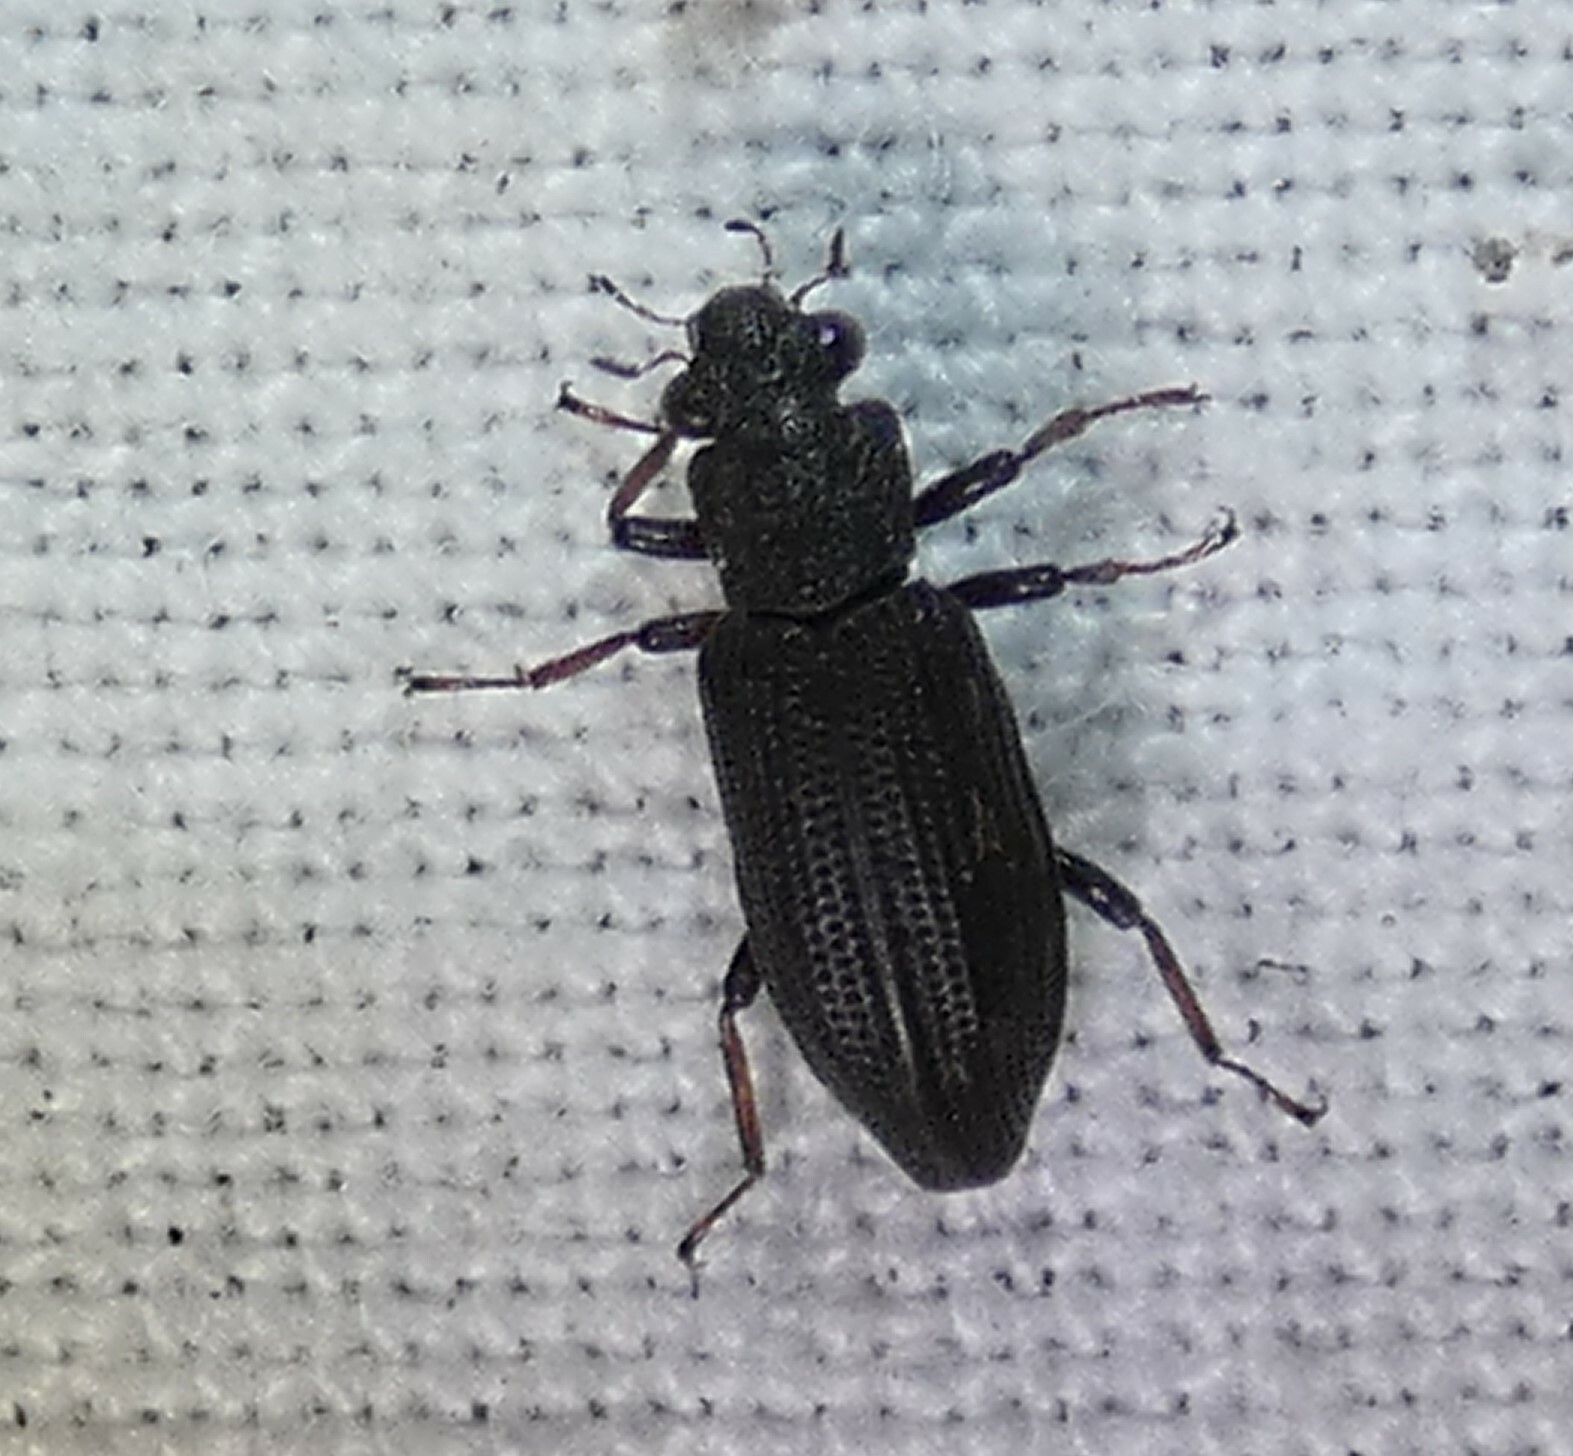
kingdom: Animalia
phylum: Arthropoda
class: Insecta
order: Coleoptera
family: Hydrochidae
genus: Hydrochus
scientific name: Hydrochus rugosus
